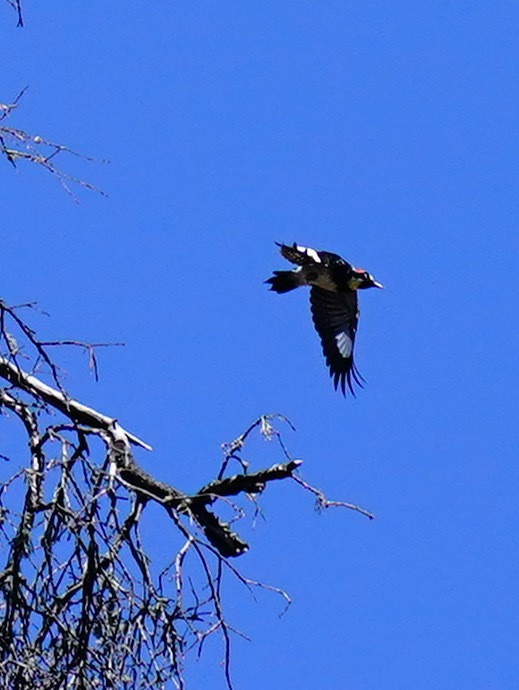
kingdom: Animalia
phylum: Chordata
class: Aves
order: Piciformes
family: Picidae
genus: Melanerpes
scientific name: Melanerpes formicivorus
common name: Acorn woodpecker
